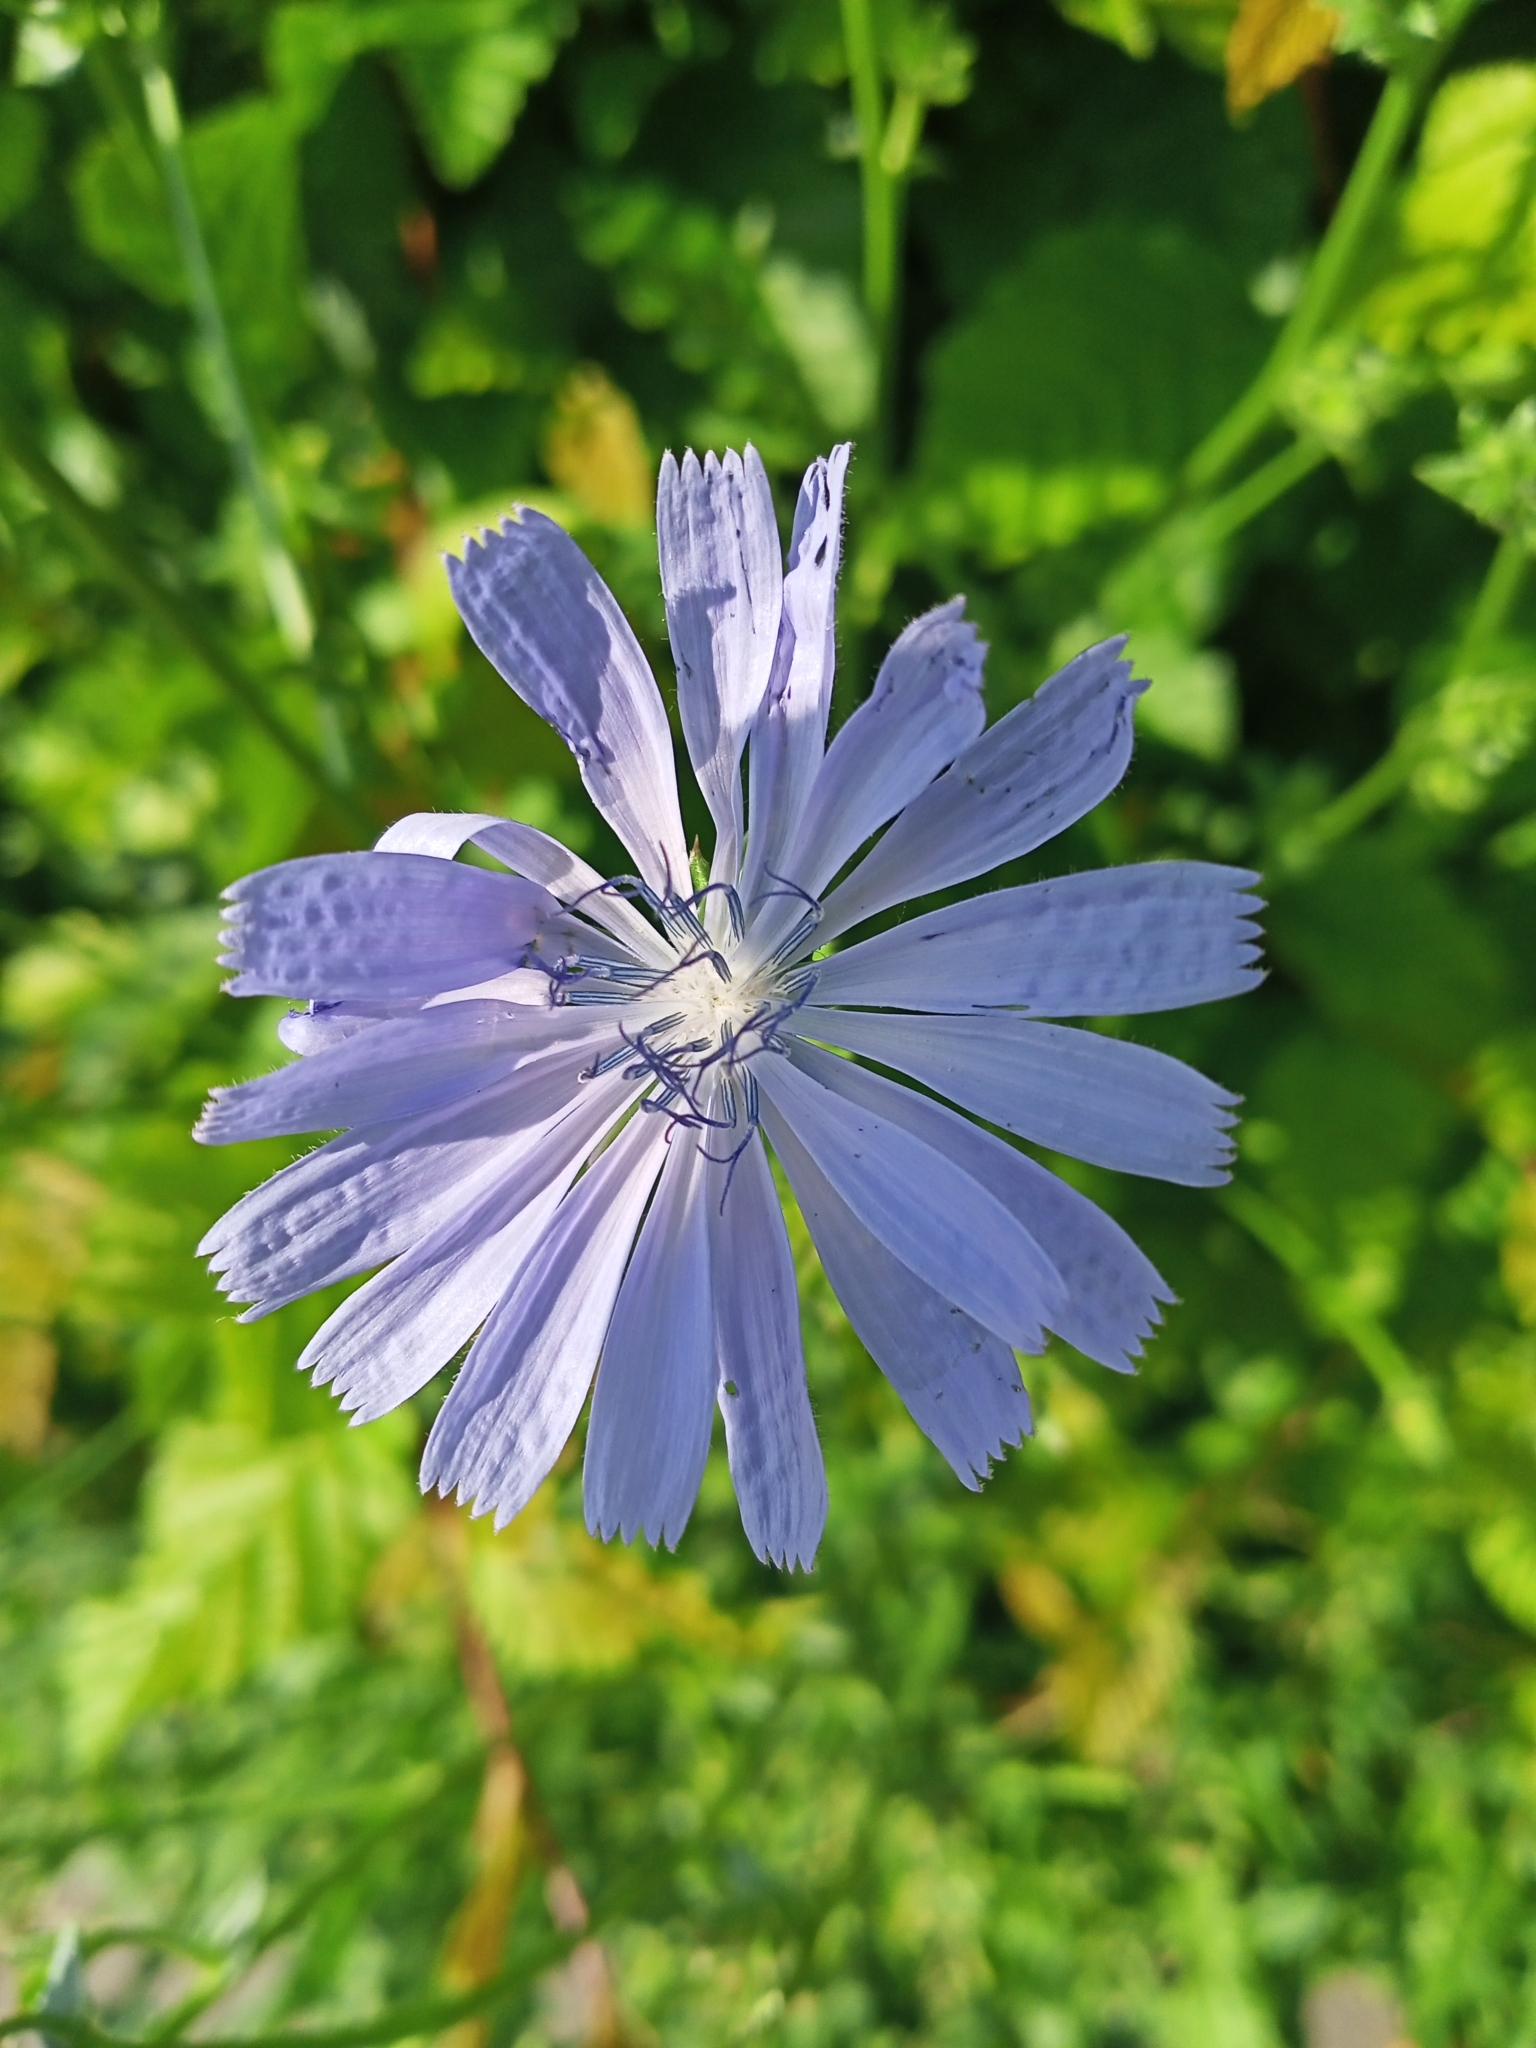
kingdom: Plantae
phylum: Tracheophyta
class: Magnoliopsida
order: Asterales
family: Asteraceae
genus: Cichorium
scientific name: Cichorium intybus
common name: Chicory
